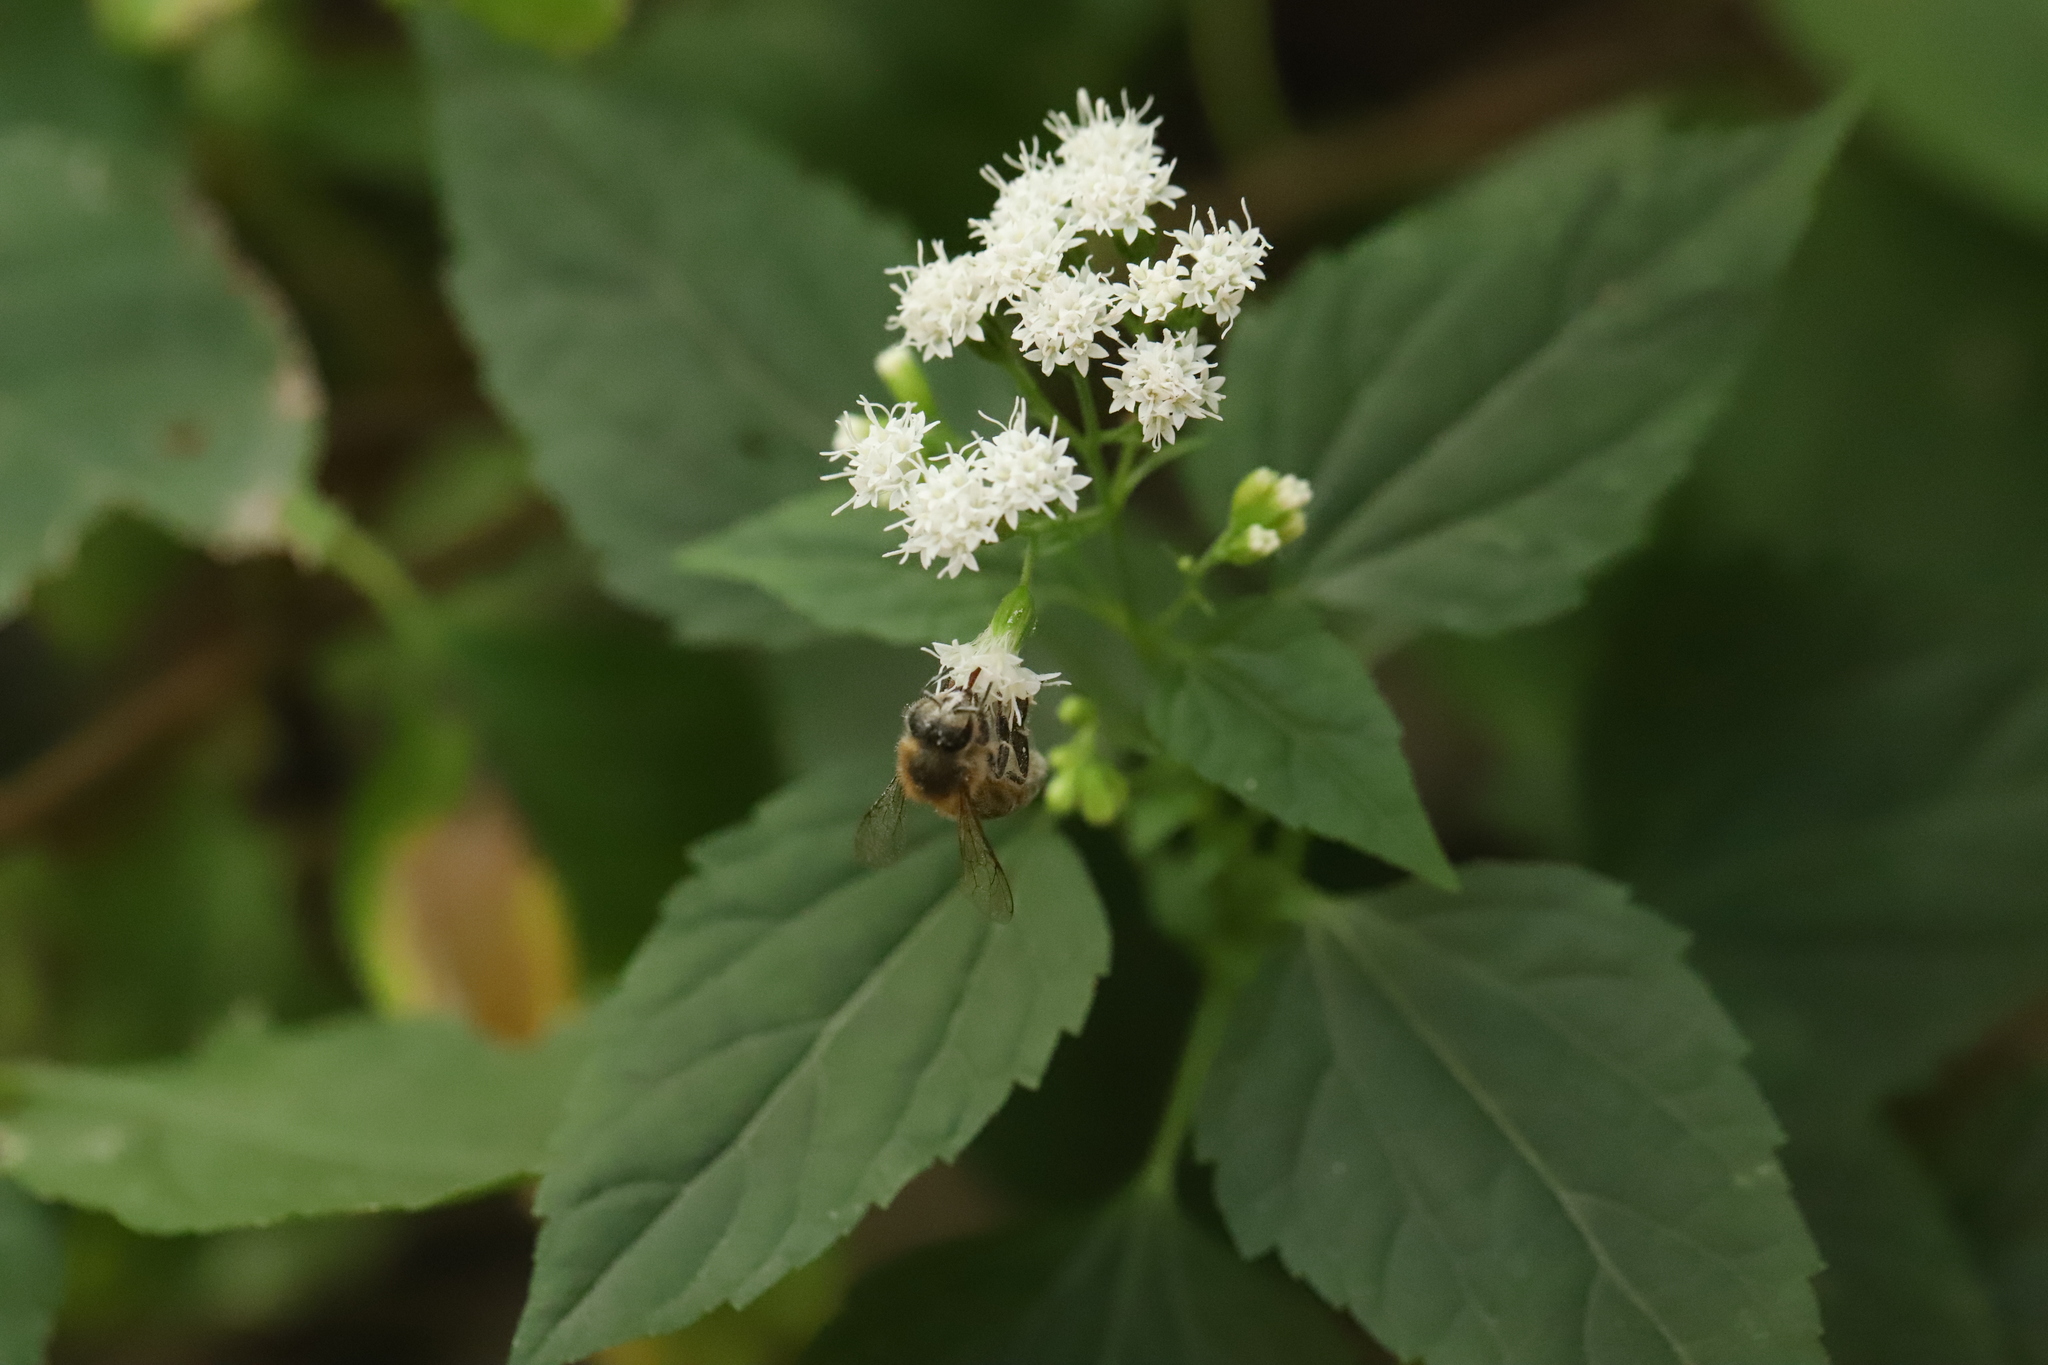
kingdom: Plantae
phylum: Tracheophyta
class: Magnoliopsida
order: Asterales
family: Asteraceae
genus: Ageratina
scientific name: Ageratina altissima
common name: White snakeroot
